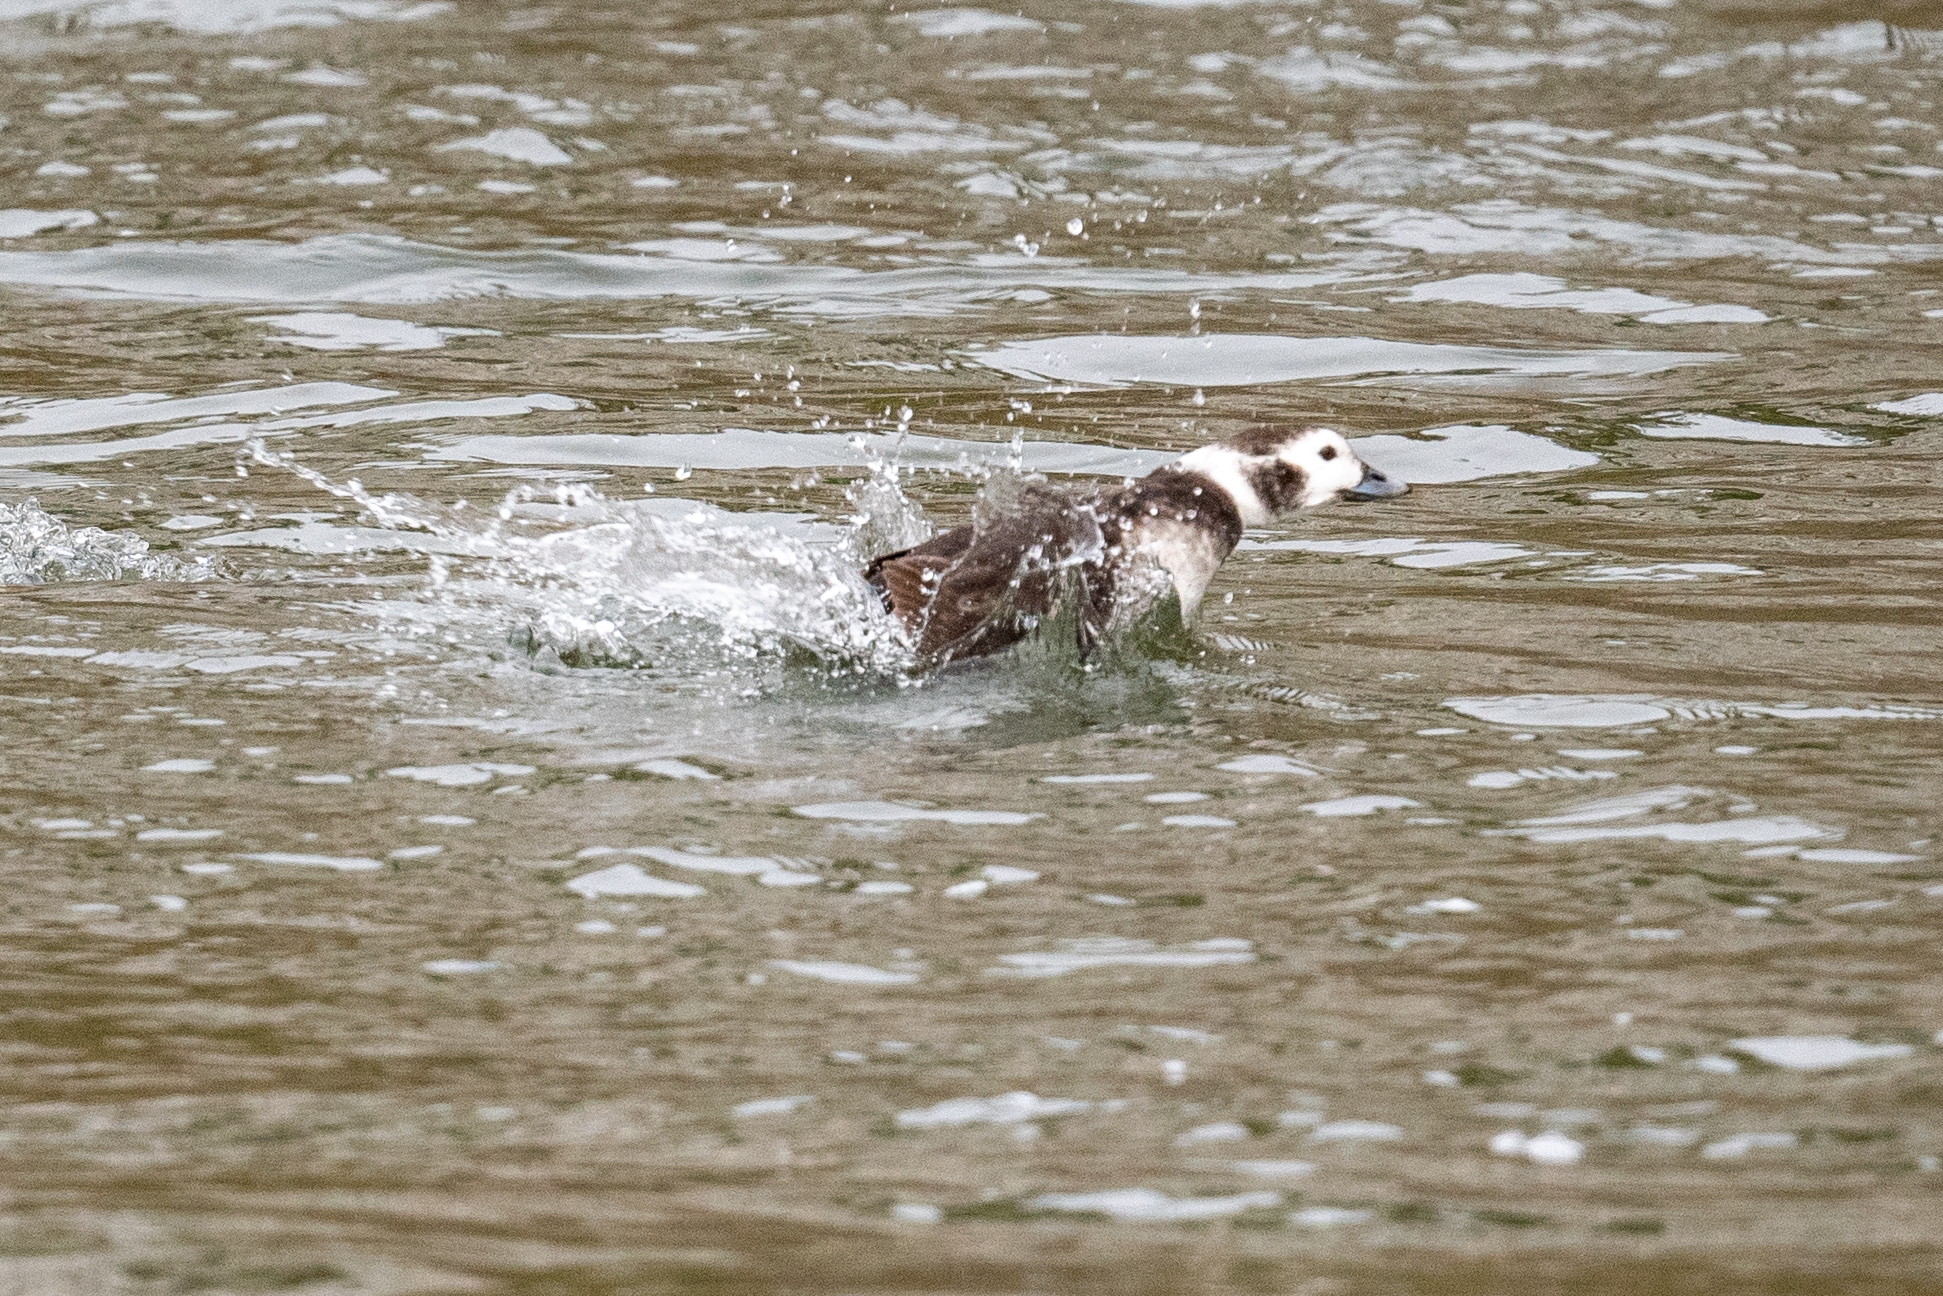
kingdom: Animalia
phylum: Chordata
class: Aves
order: Anseriformes
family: Anatidae
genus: Clangula
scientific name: Clangula hyemalis
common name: Long-tailed duck
